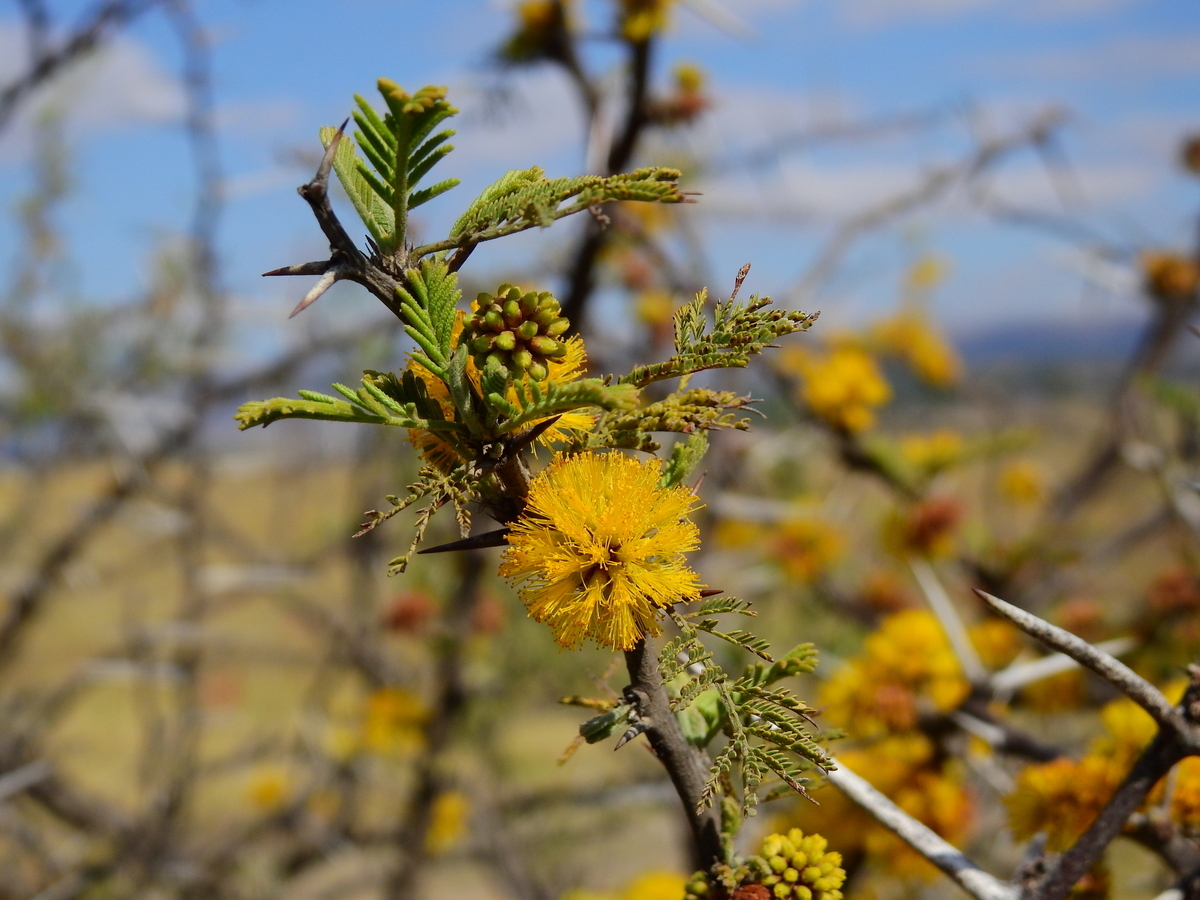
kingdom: Plantae
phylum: Tracheophyta
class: Magnoliopsida
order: Fabales
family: Fabaceae
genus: Vachellia
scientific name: Vachellia caven
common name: Roman cassie
